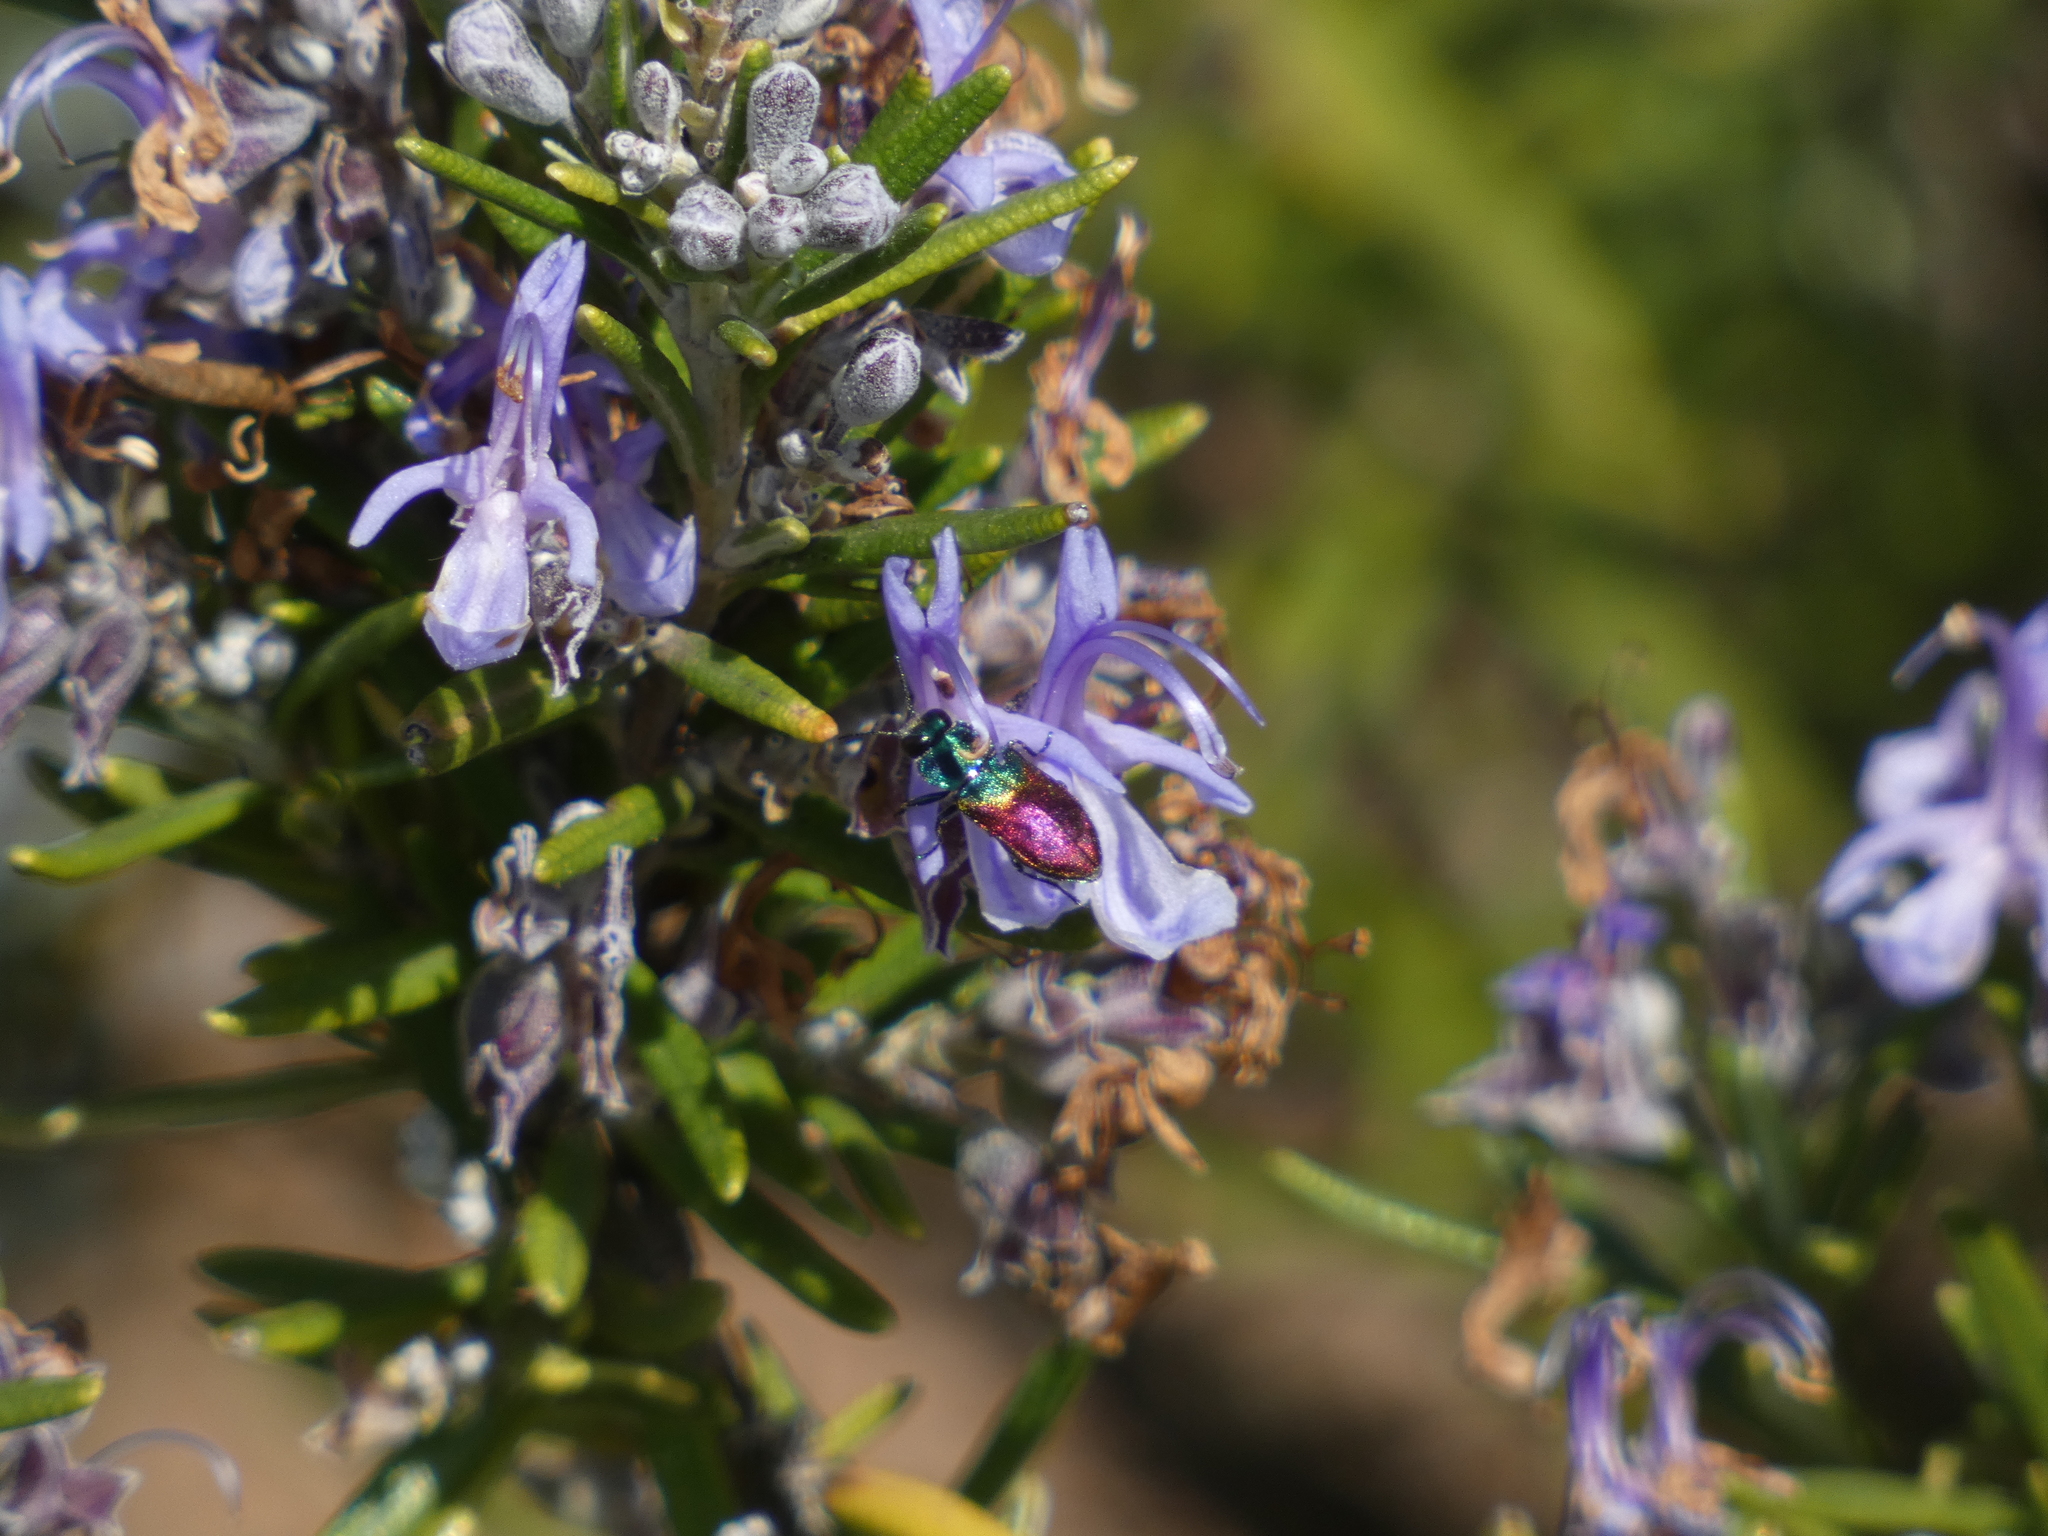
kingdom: Animalia
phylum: Arthropoda
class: Insecta
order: Coleoptera
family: Buprestidae
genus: Anthaxia
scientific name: Anthaxia salicis
